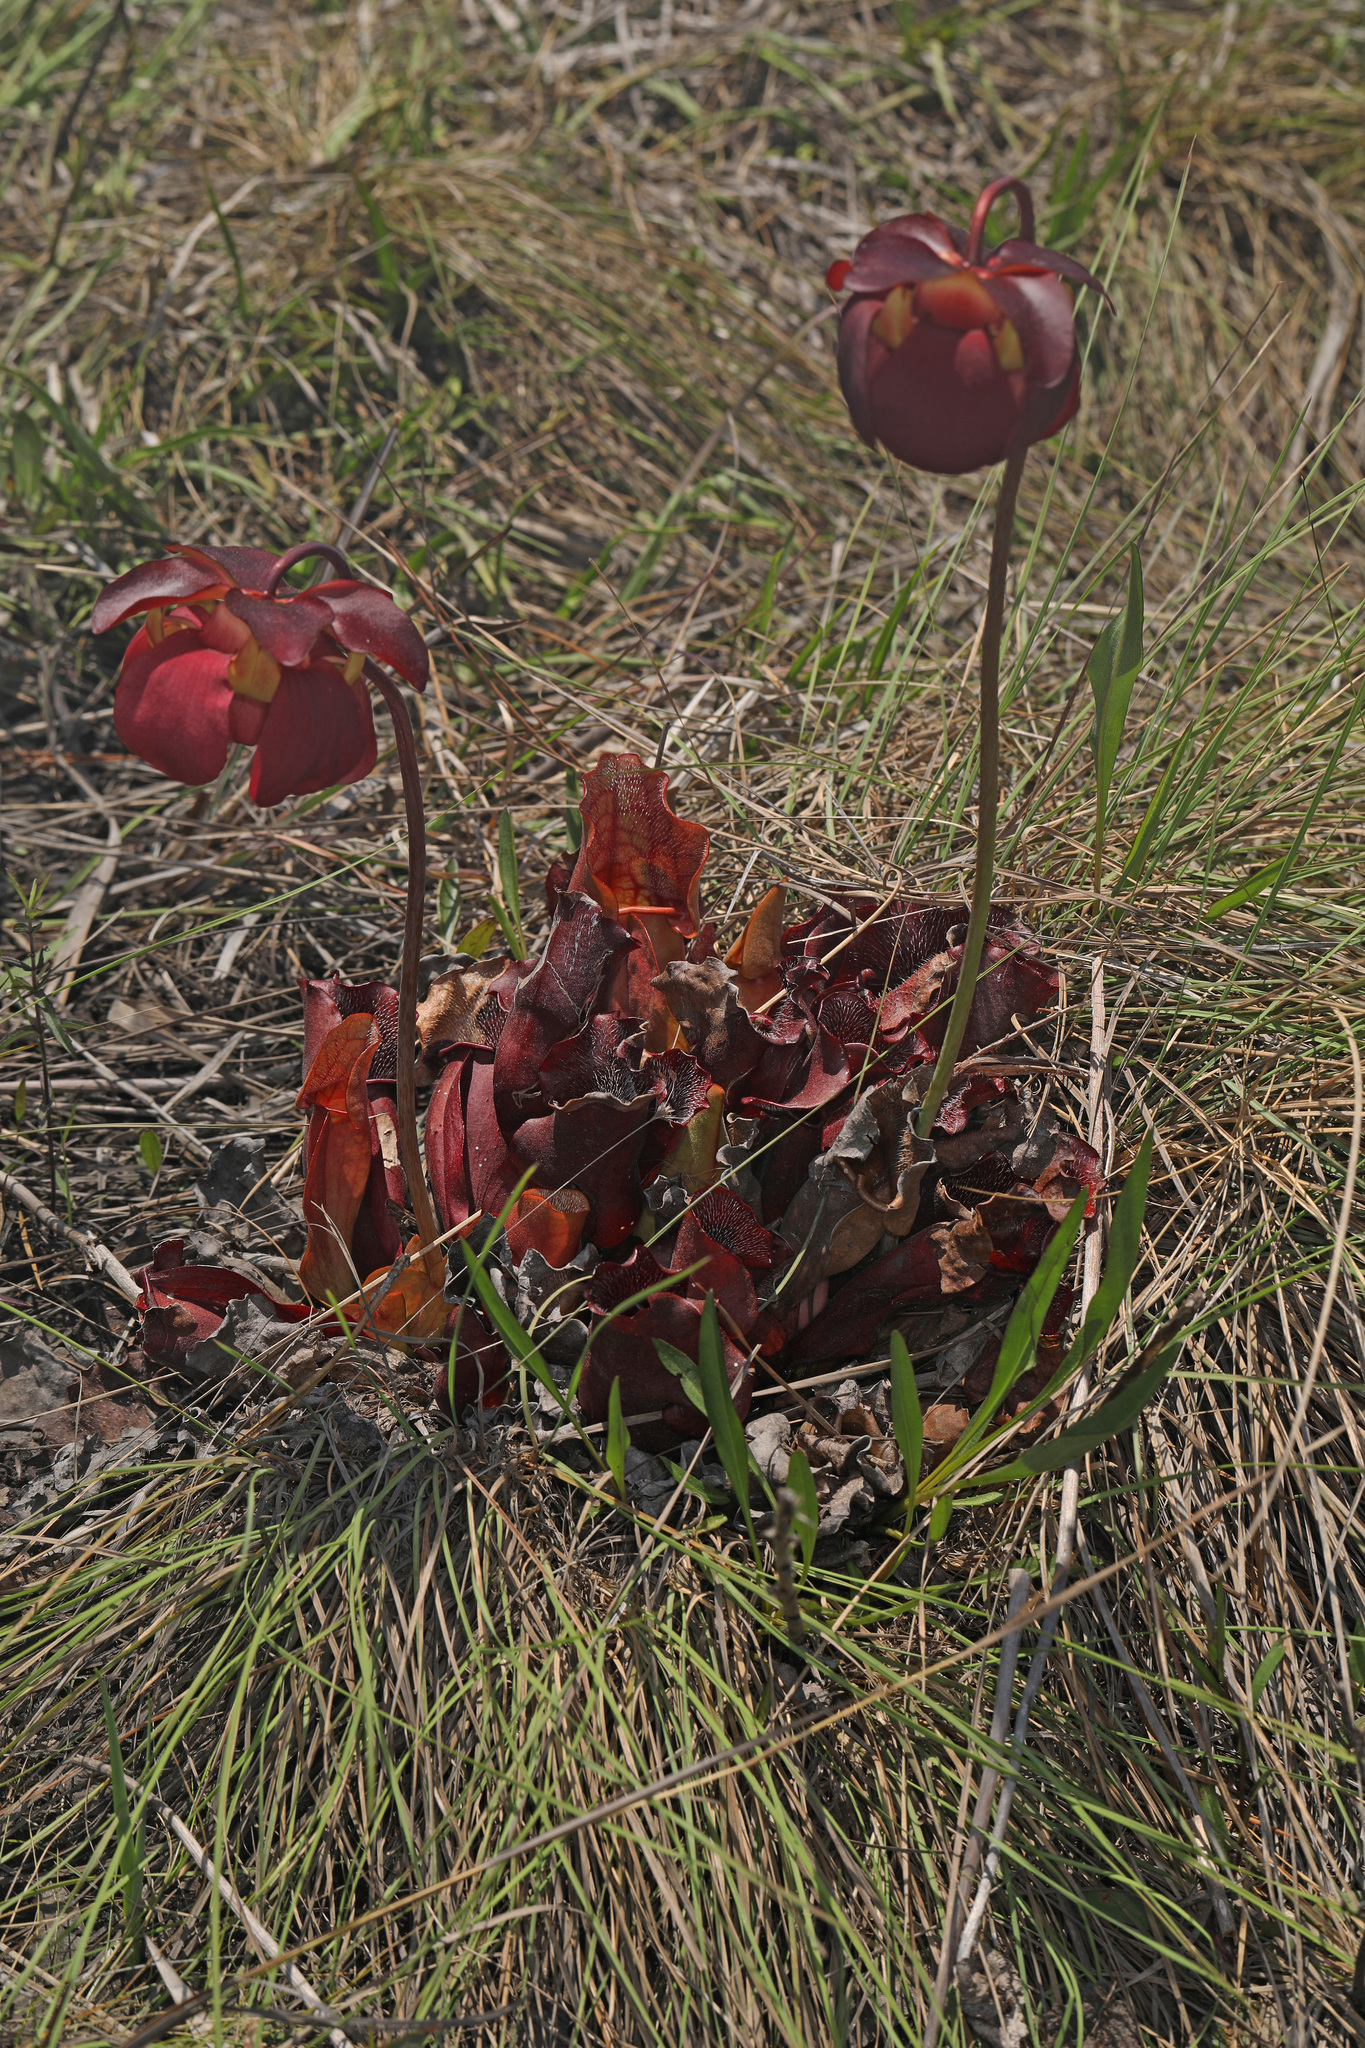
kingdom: Plantae
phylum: Tracheophyta
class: Magnoliopsida
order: Ericales
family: Sarraceniaceae
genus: Sarracenia
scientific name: Sarracenia purpurea
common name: Pitcherplant
